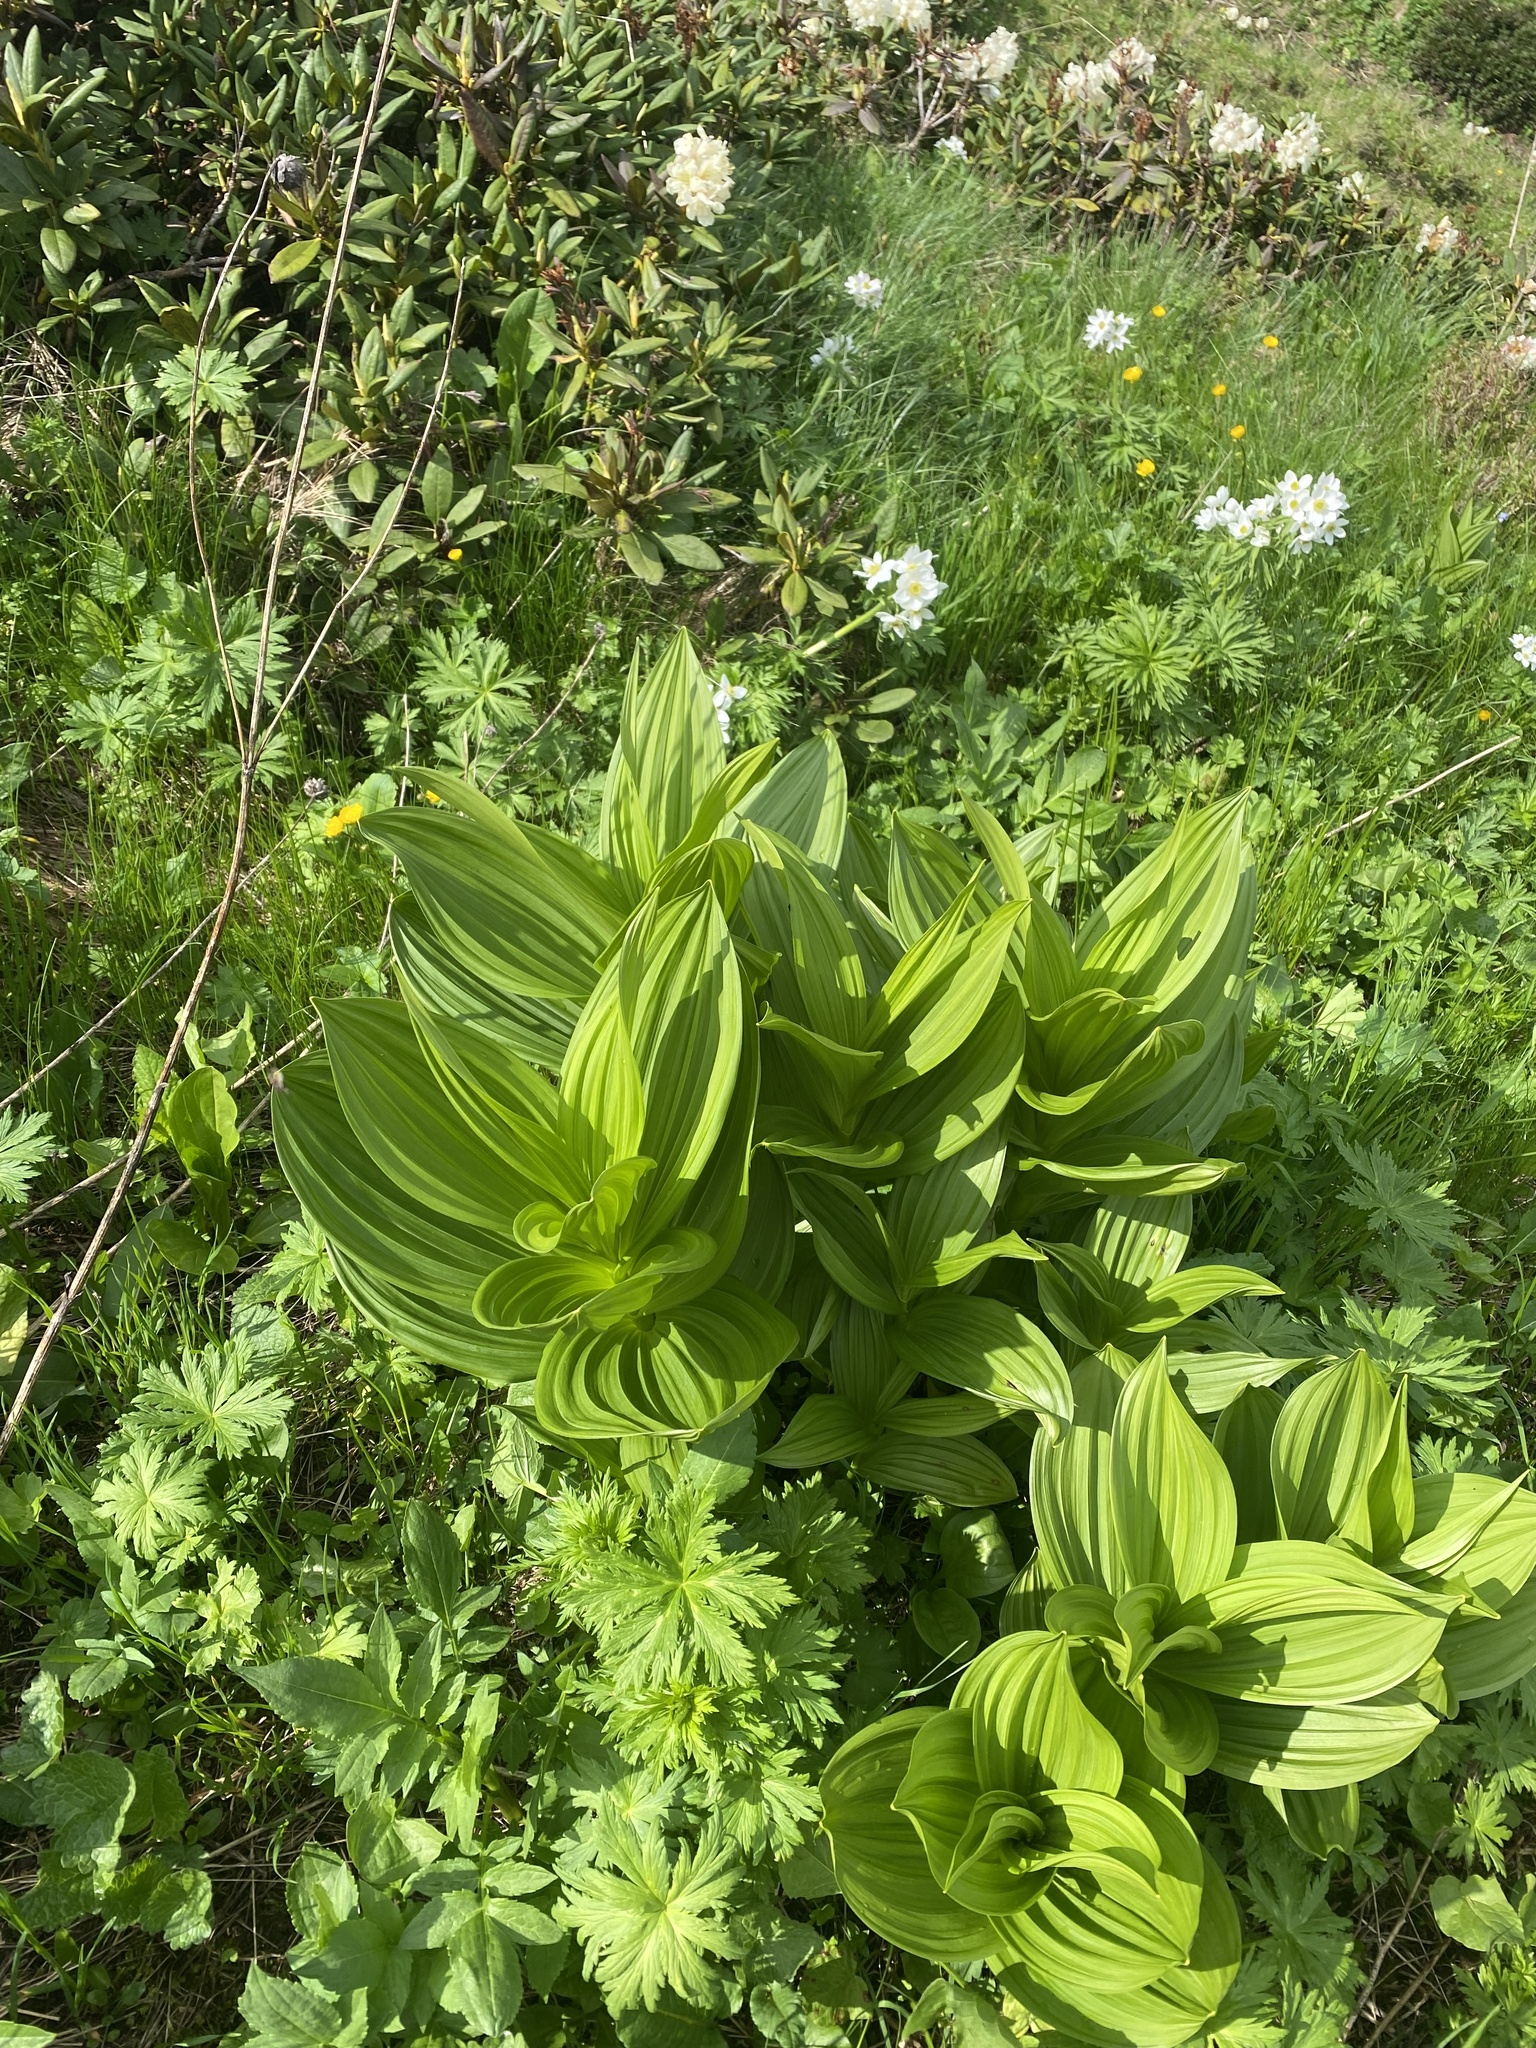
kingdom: Plantae
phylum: Tracheophyta
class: Liliopsida
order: Liliales
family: Melanthiaceae
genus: Veratrum
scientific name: Veratrum lobelianum
